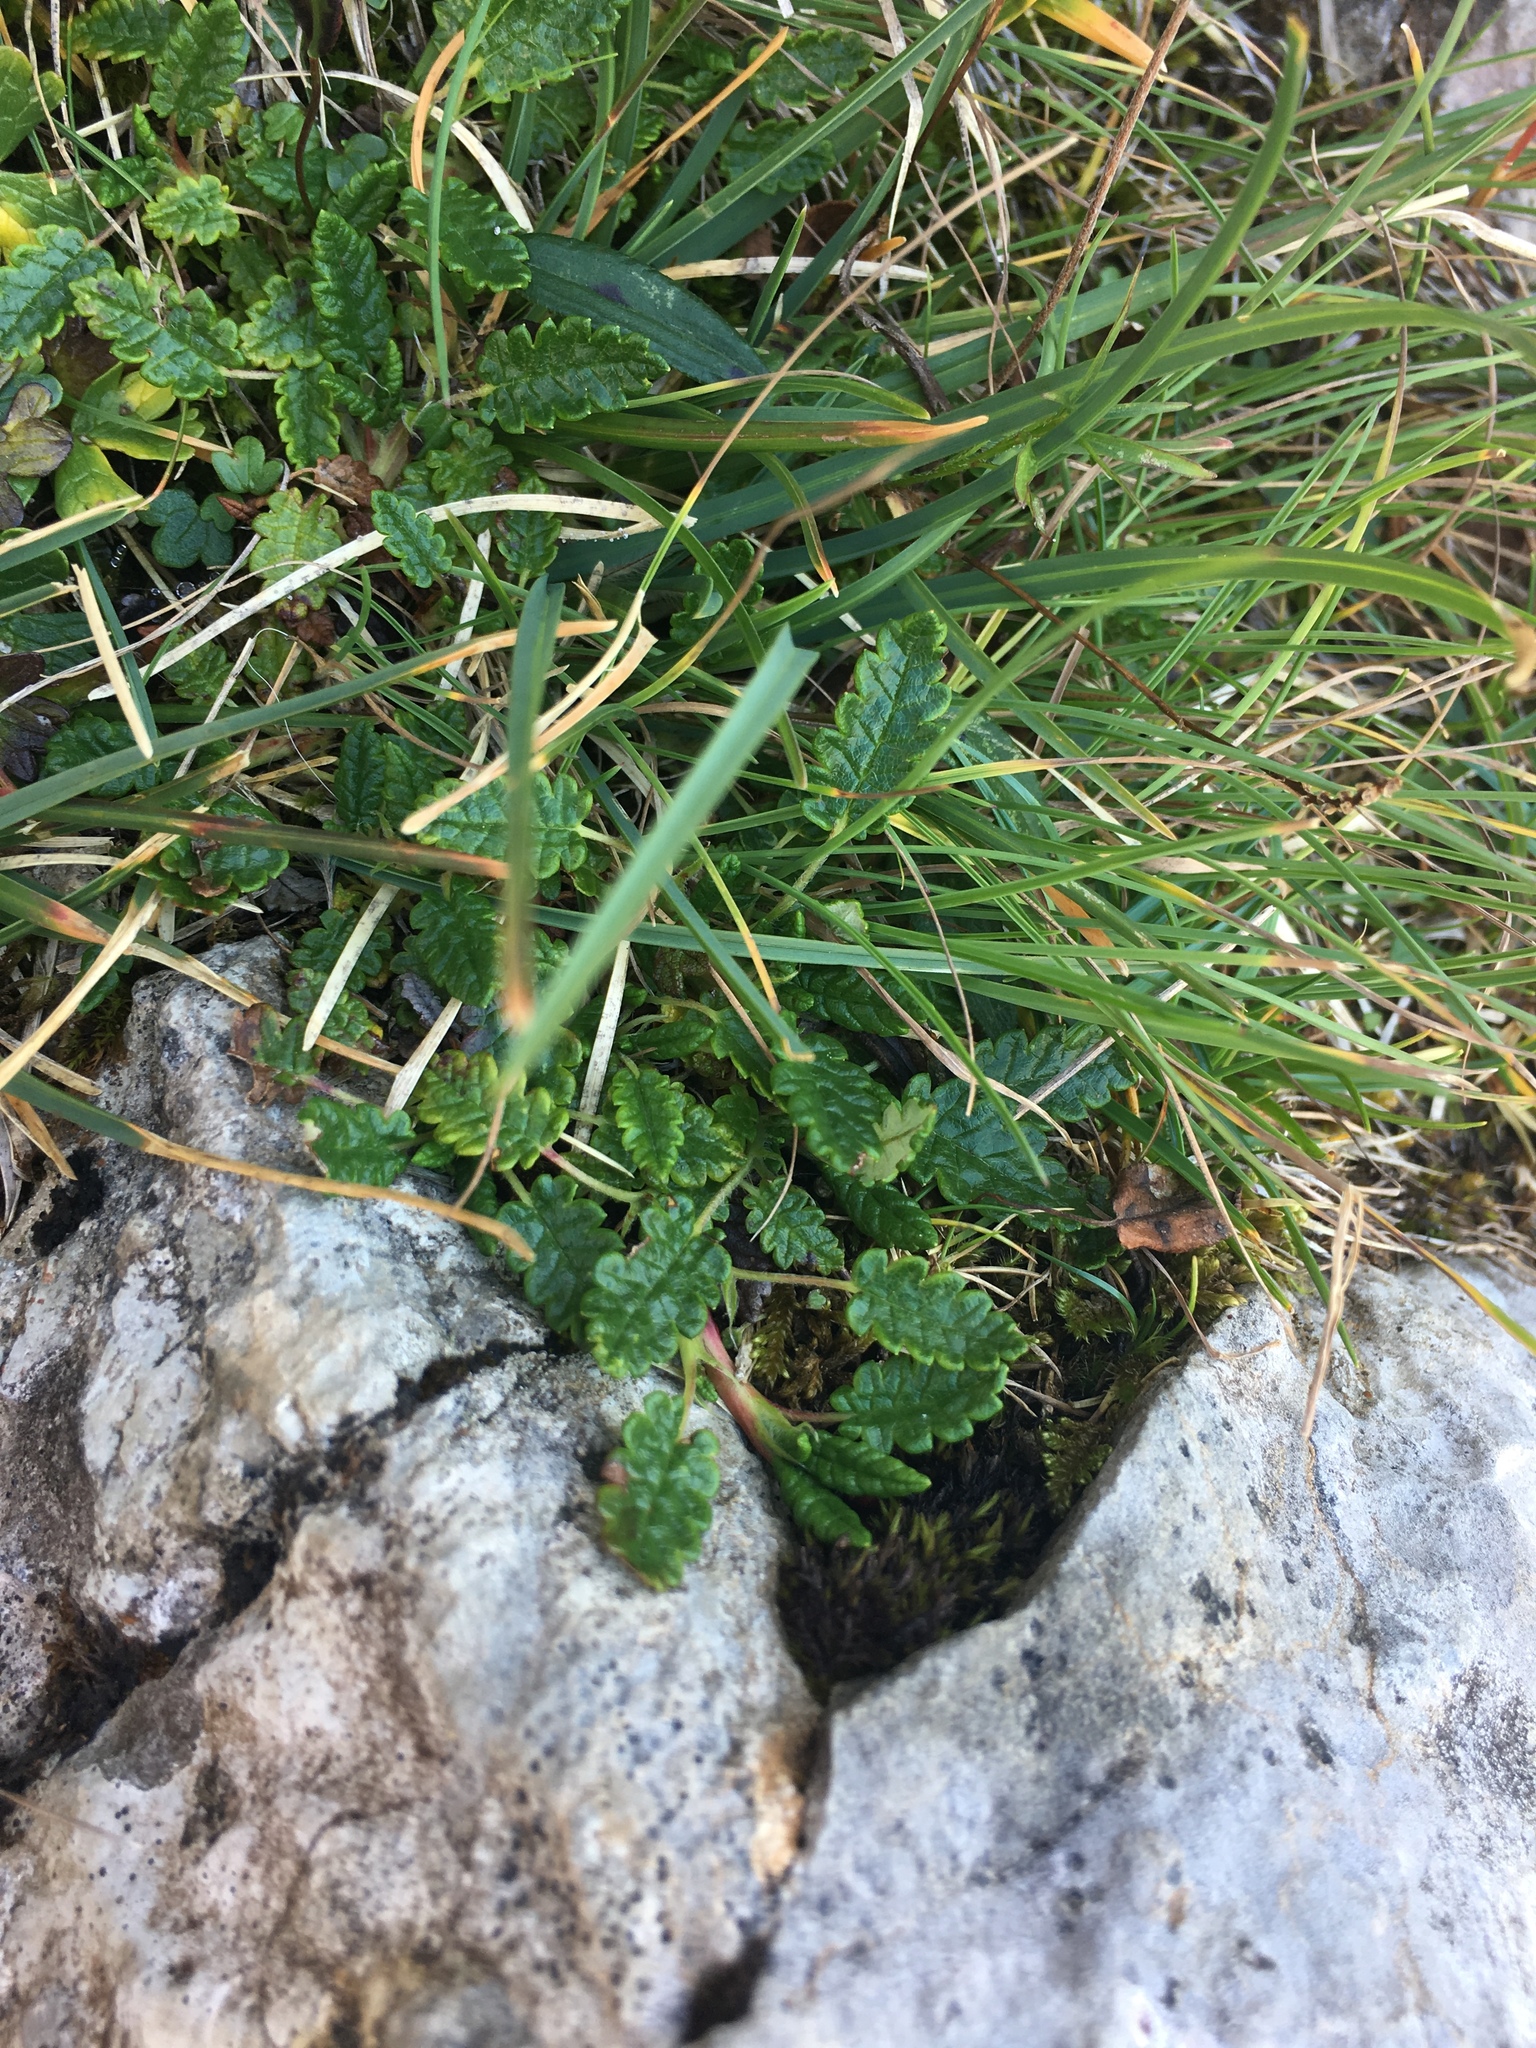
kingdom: Plantae
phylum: Tracheophyta
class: Magnoliopsida
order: Rosales
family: Rosaceae
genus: Dryas
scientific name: Dryas octopetala
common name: Eight-petal mountain-avens
